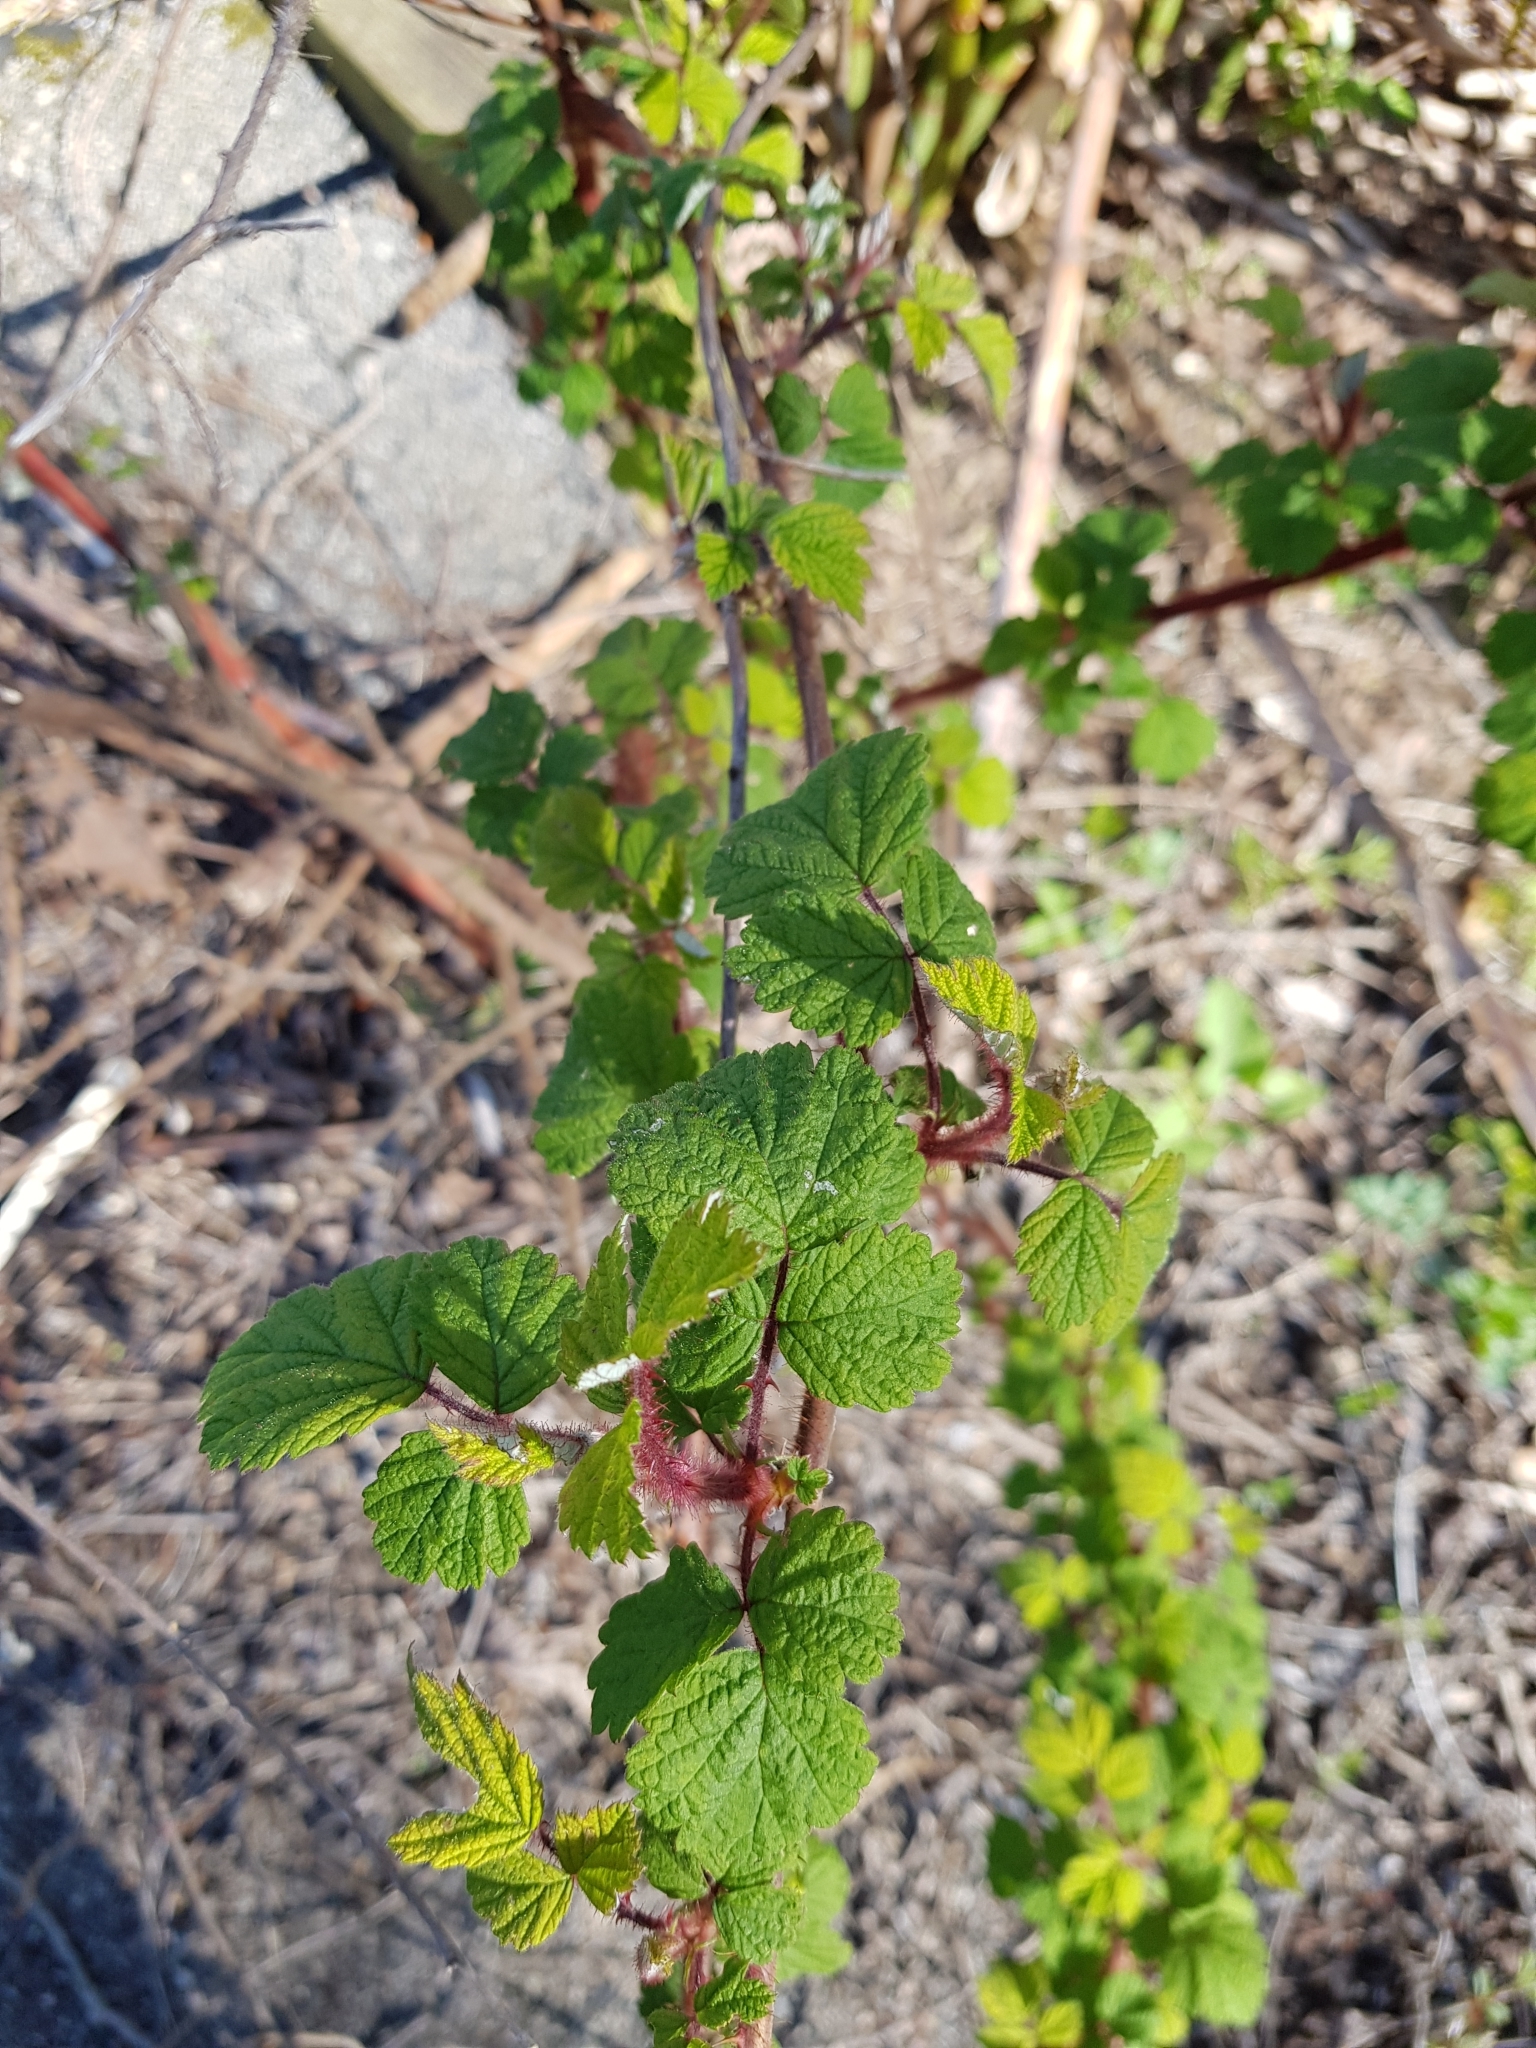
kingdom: Plantae
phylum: Tracheophyta
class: Magnoliopsida
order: Rosales
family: Rosaceae
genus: Rubus
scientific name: Rubus phoenicolasius
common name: Japanese wineberry
